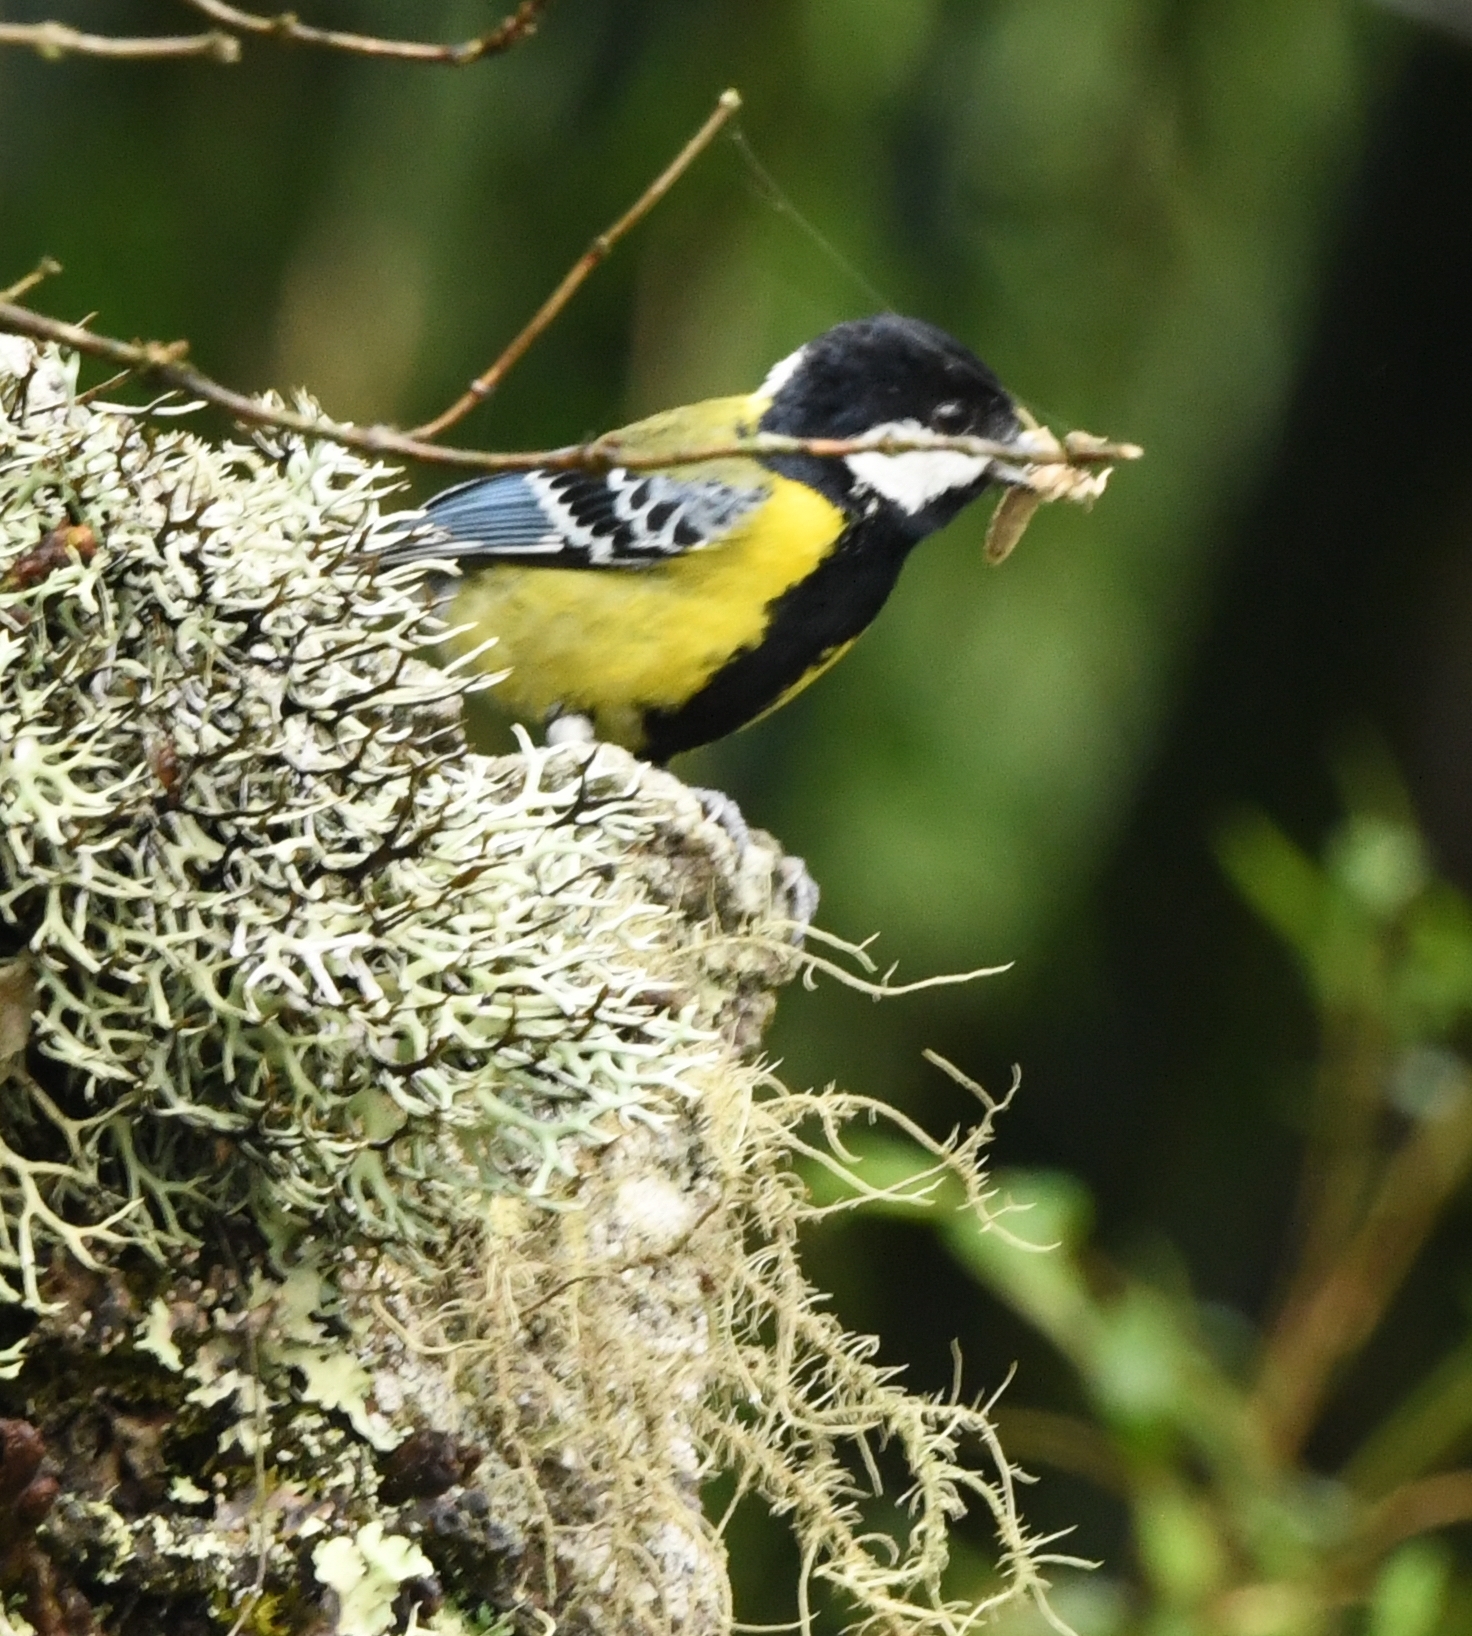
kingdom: Animalia
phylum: Chordata
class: Aves
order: Passeriformes
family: Paridae
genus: Parus
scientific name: Parus monticolus
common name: Green-backed tit
